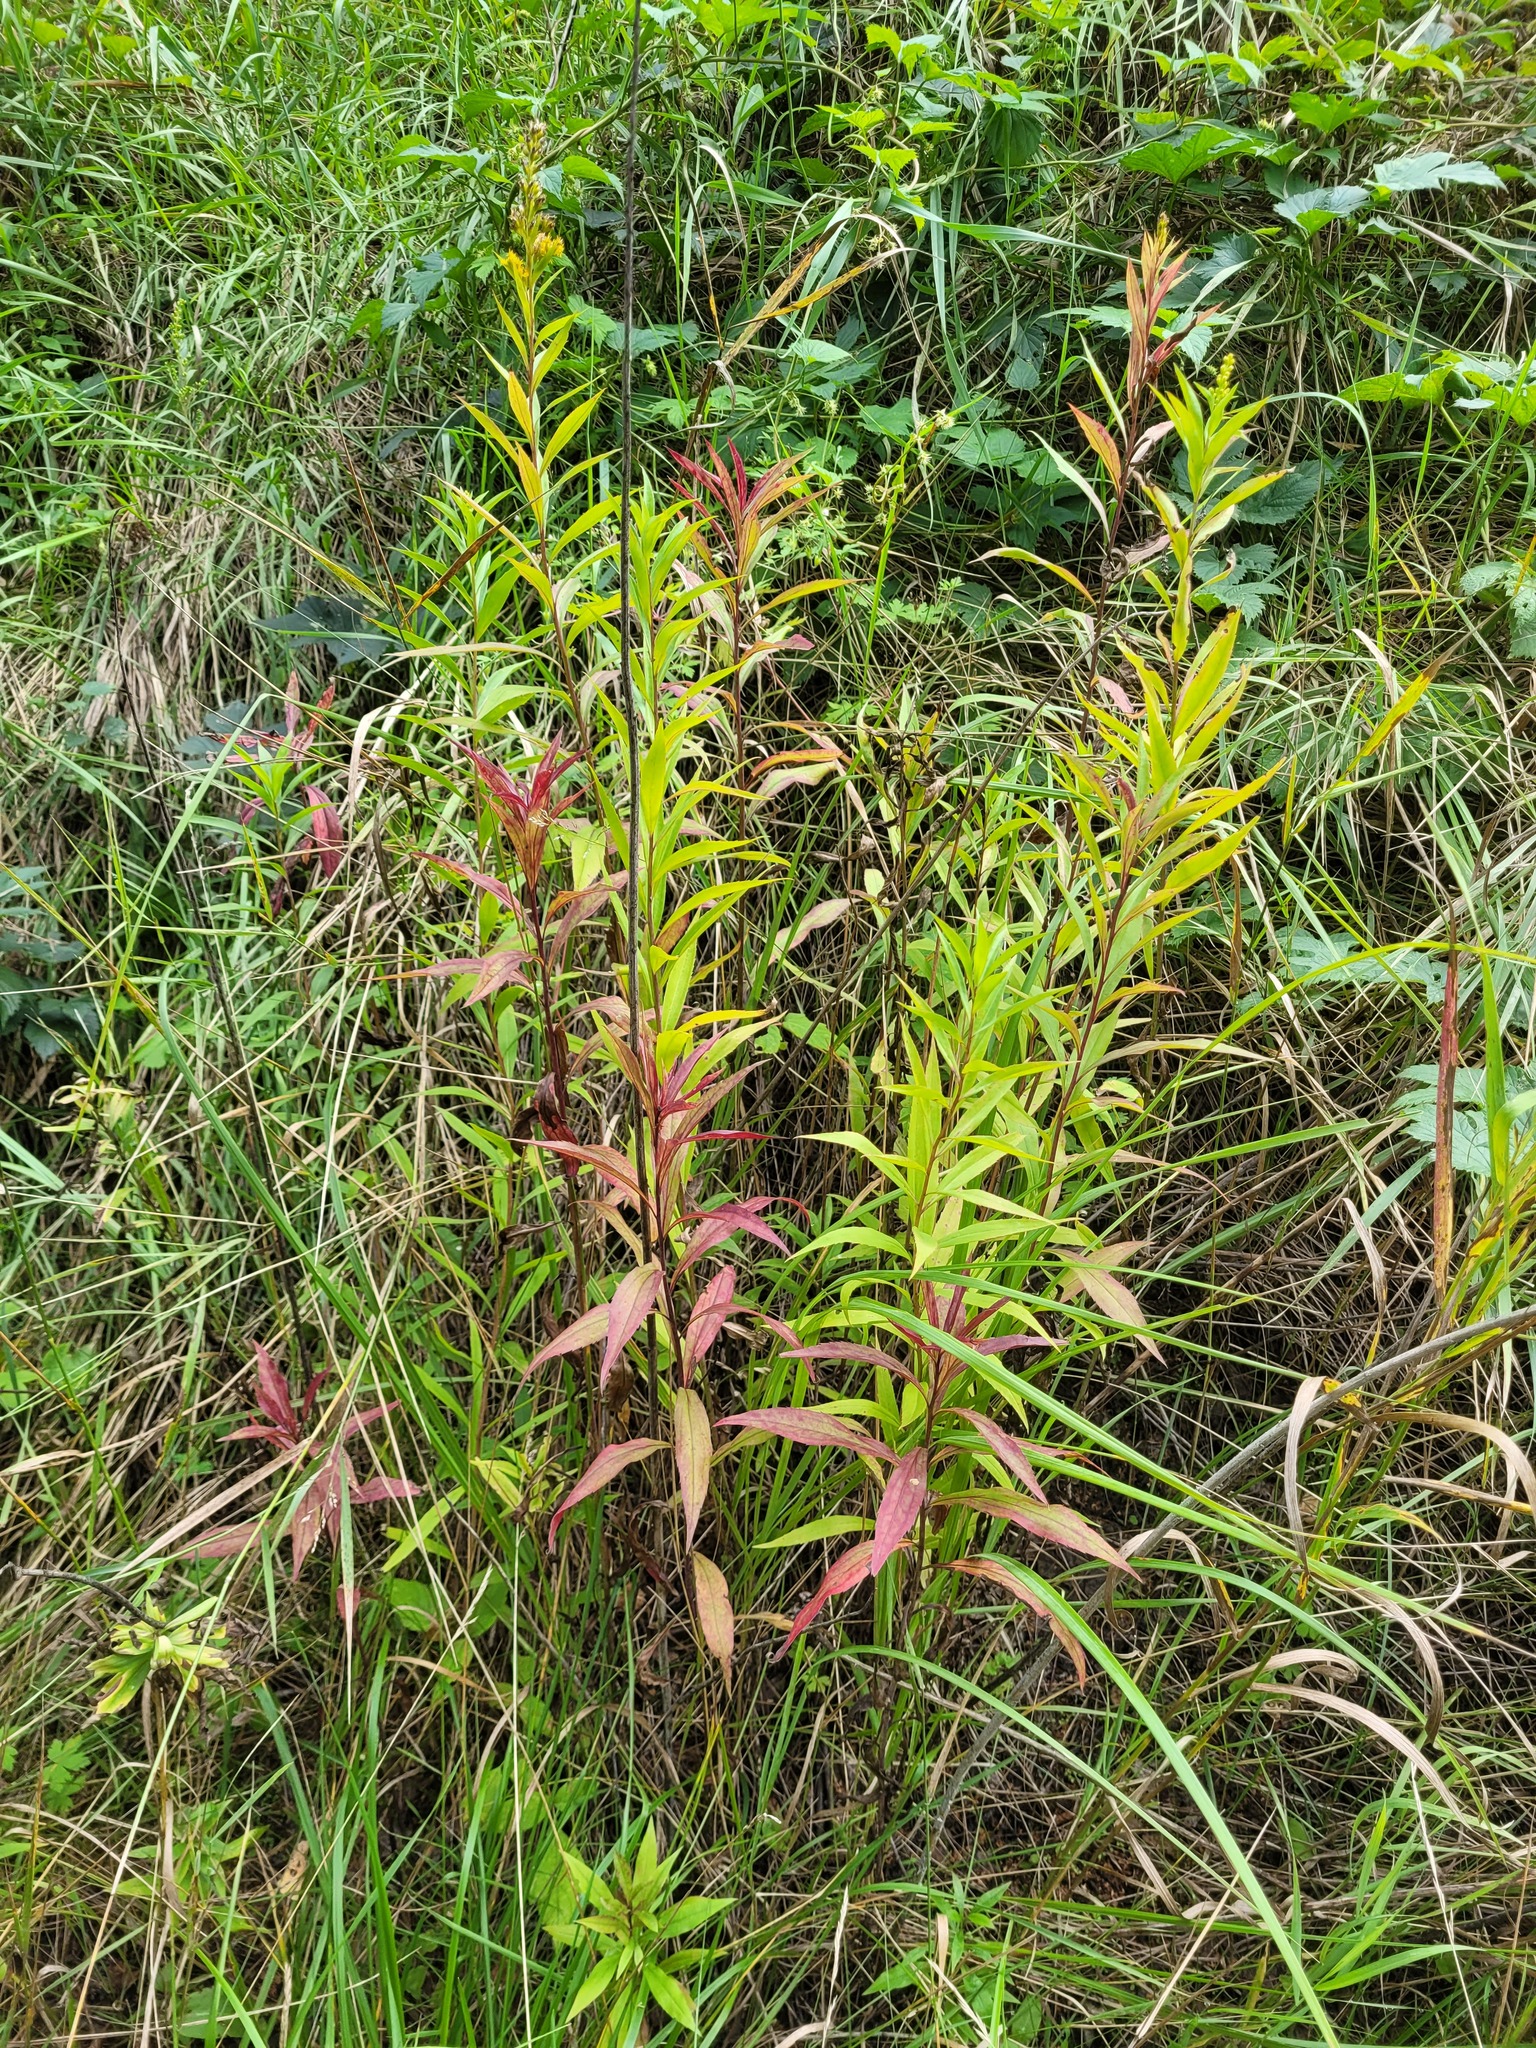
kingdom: Plantae
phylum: Tracheophyta
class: Magnoliopsida
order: Asterales
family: Asteraceae
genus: Solidago
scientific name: Solidago gigantea
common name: Giant goldenrod
